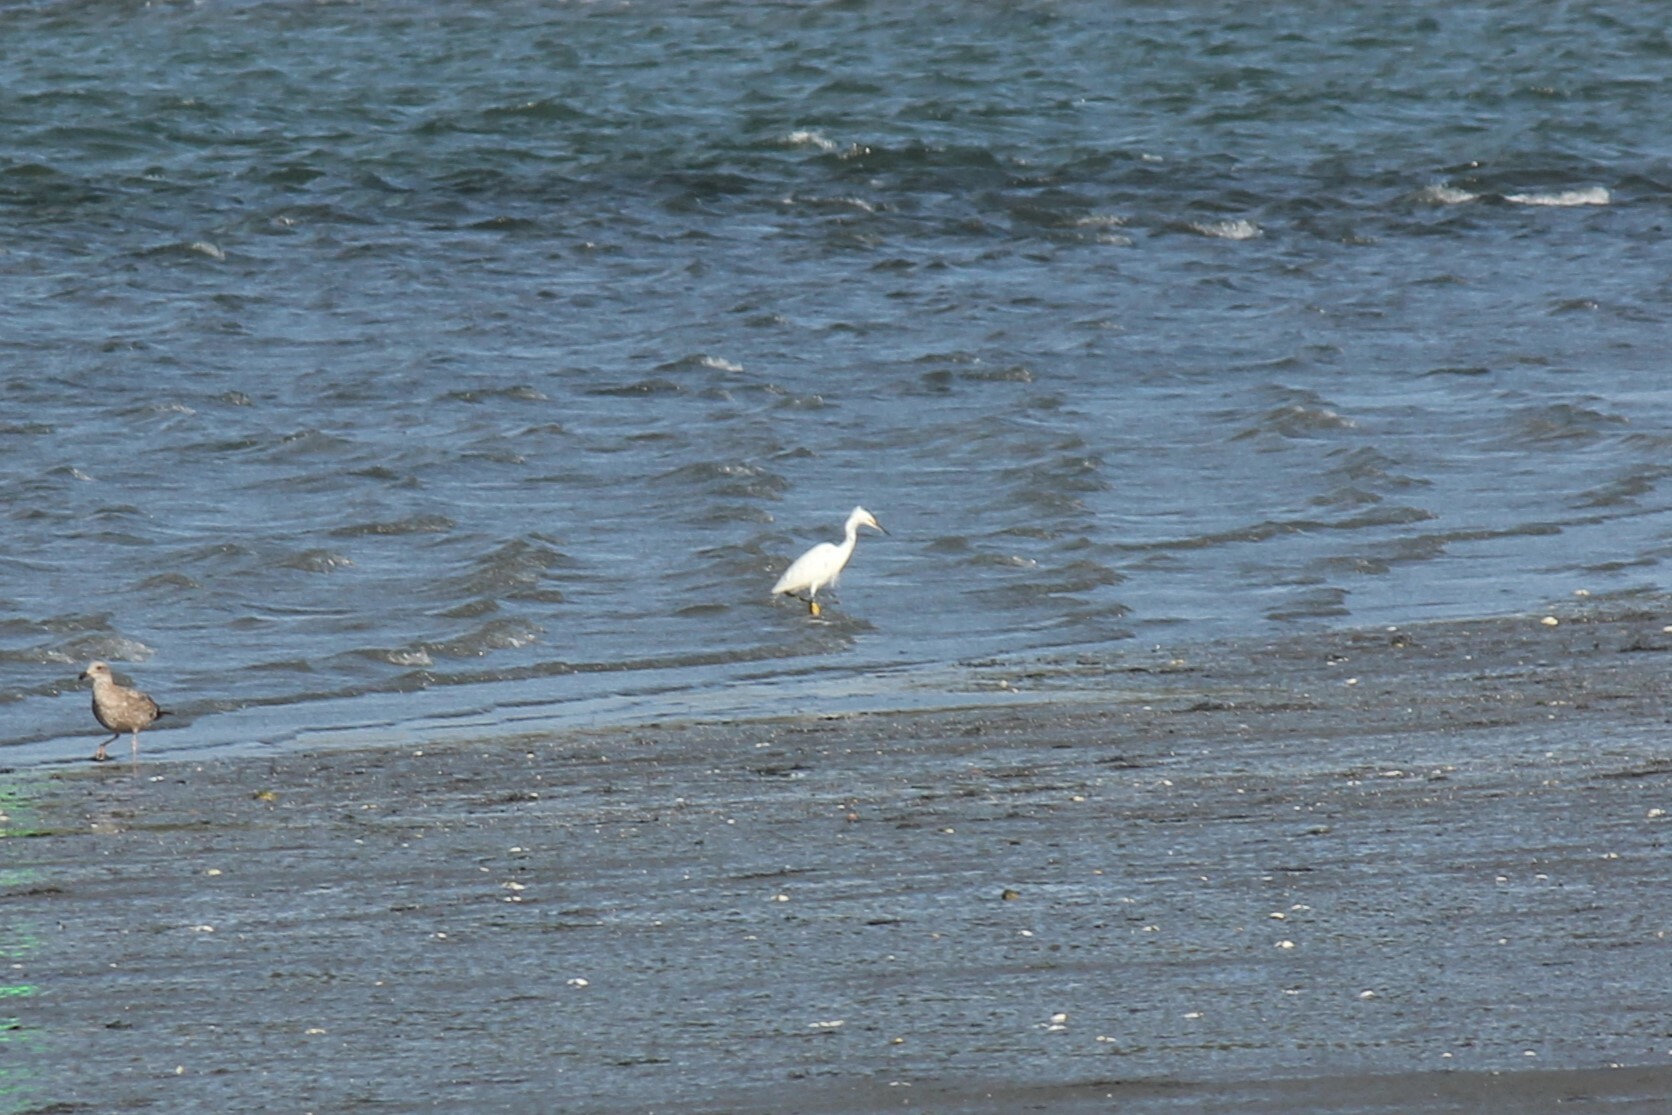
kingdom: Animalia
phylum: Chordata
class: Aves
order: Pelecaniformes
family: Ardeidae
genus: Egretta
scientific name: Egretta thula
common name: Snowy egret
